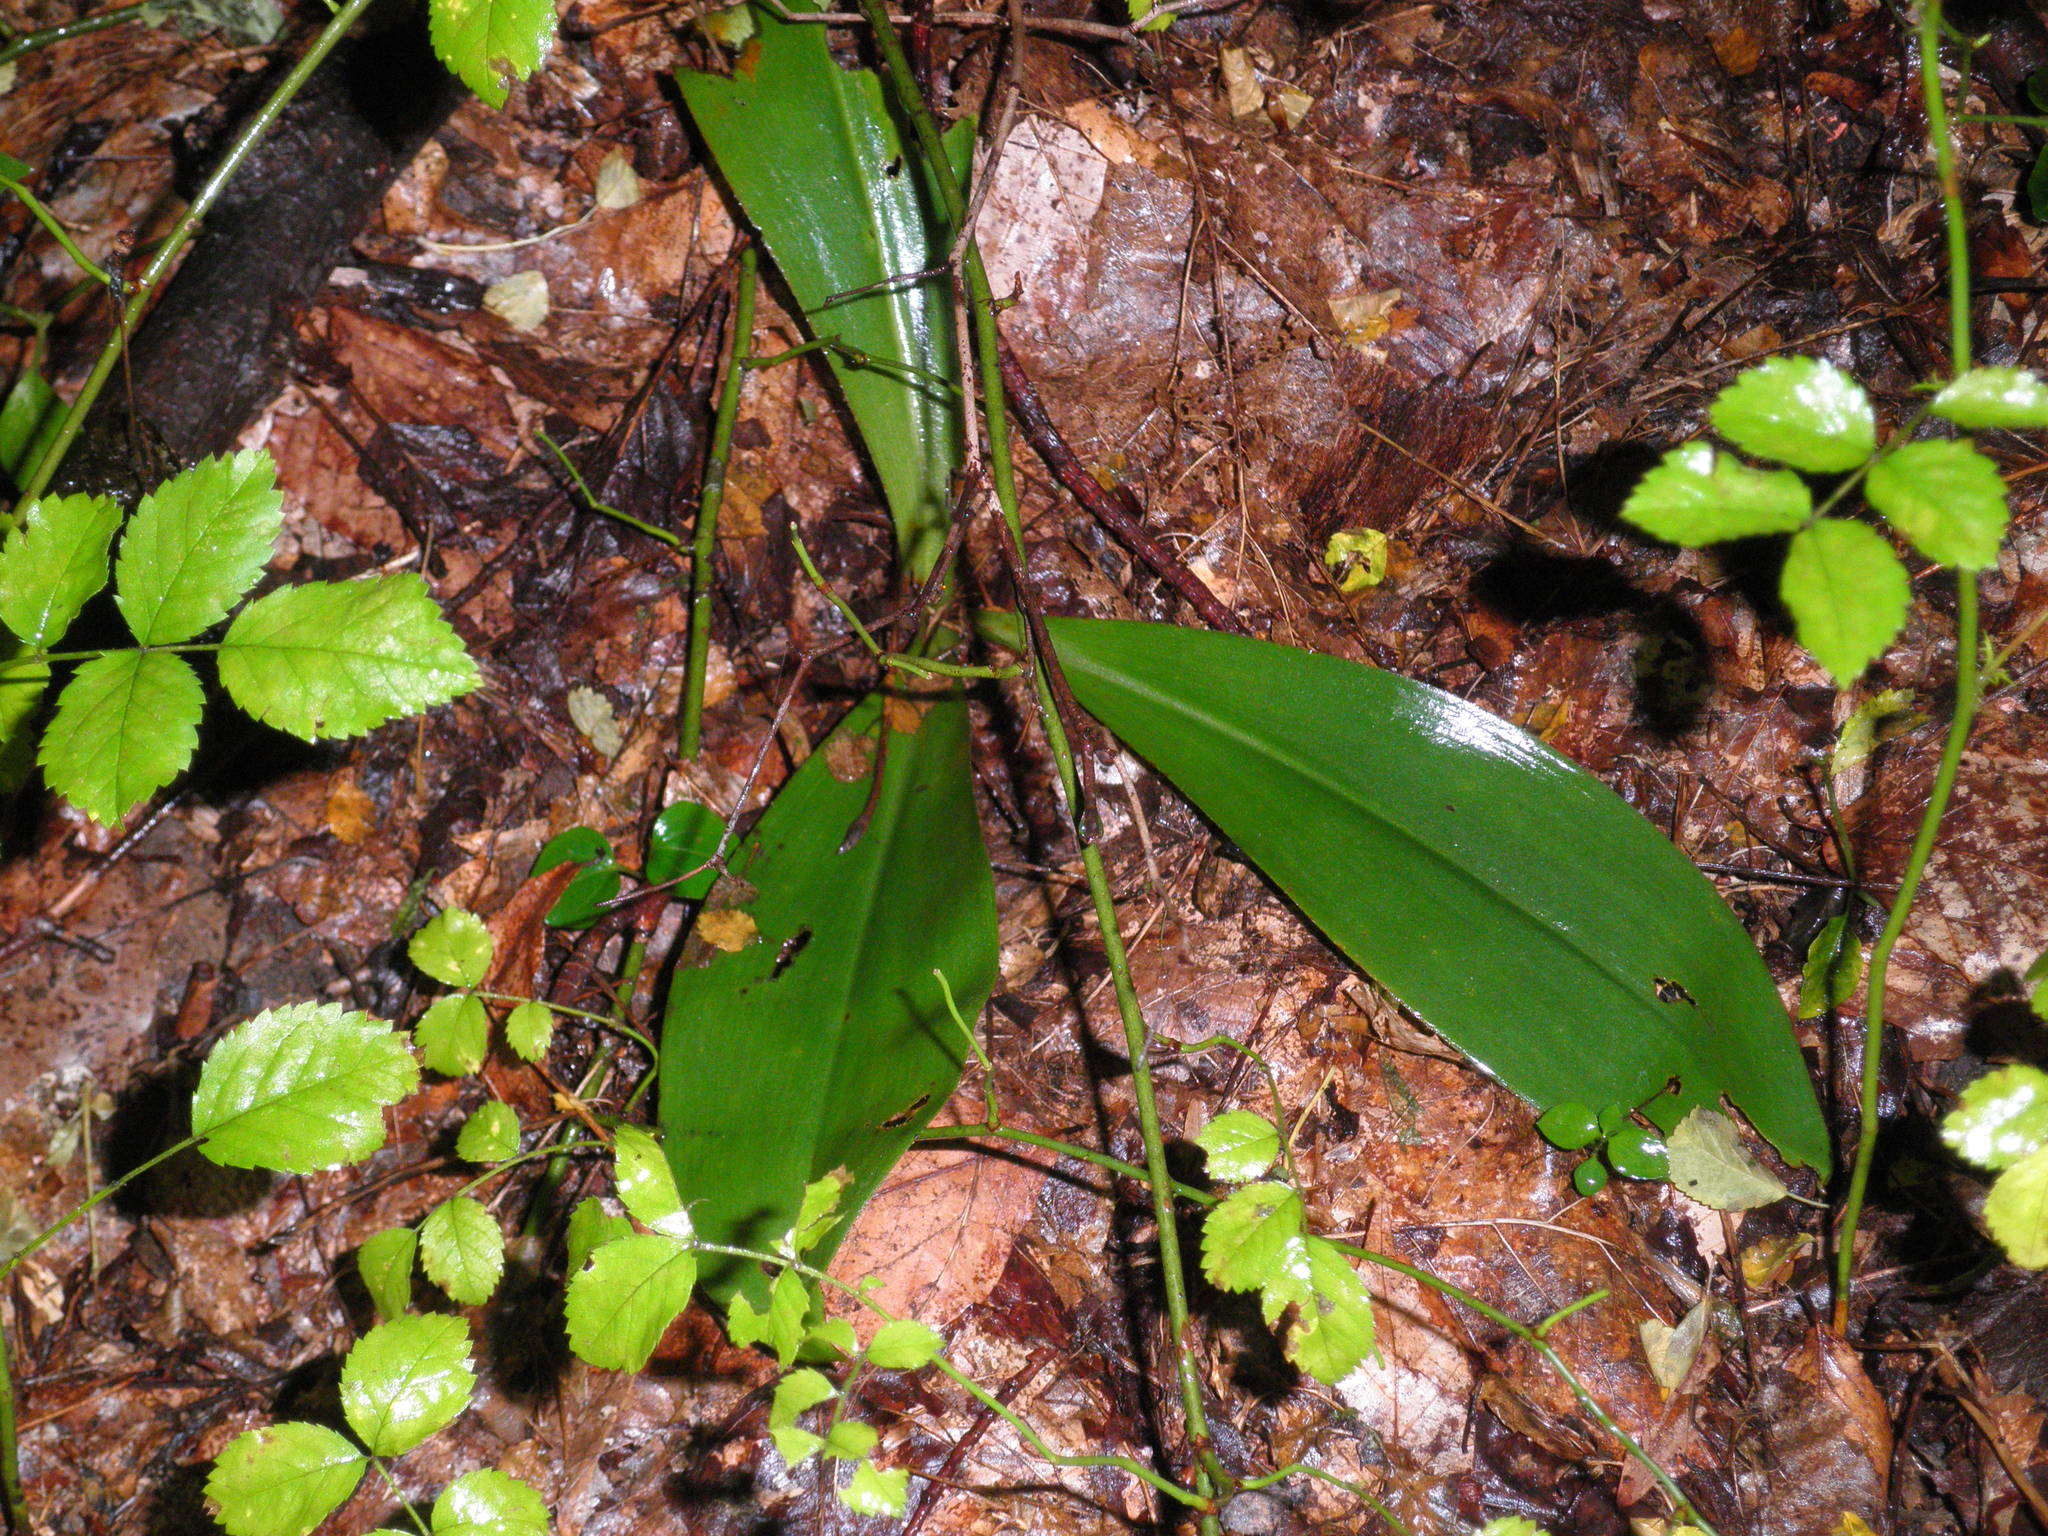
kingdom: Plantae
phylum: Tracheophyta
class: Liliopsida
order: Liliales
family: Liliaceae
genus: Clintonia
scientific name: Clintonia umbellulata
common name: Speckle wood-lily
